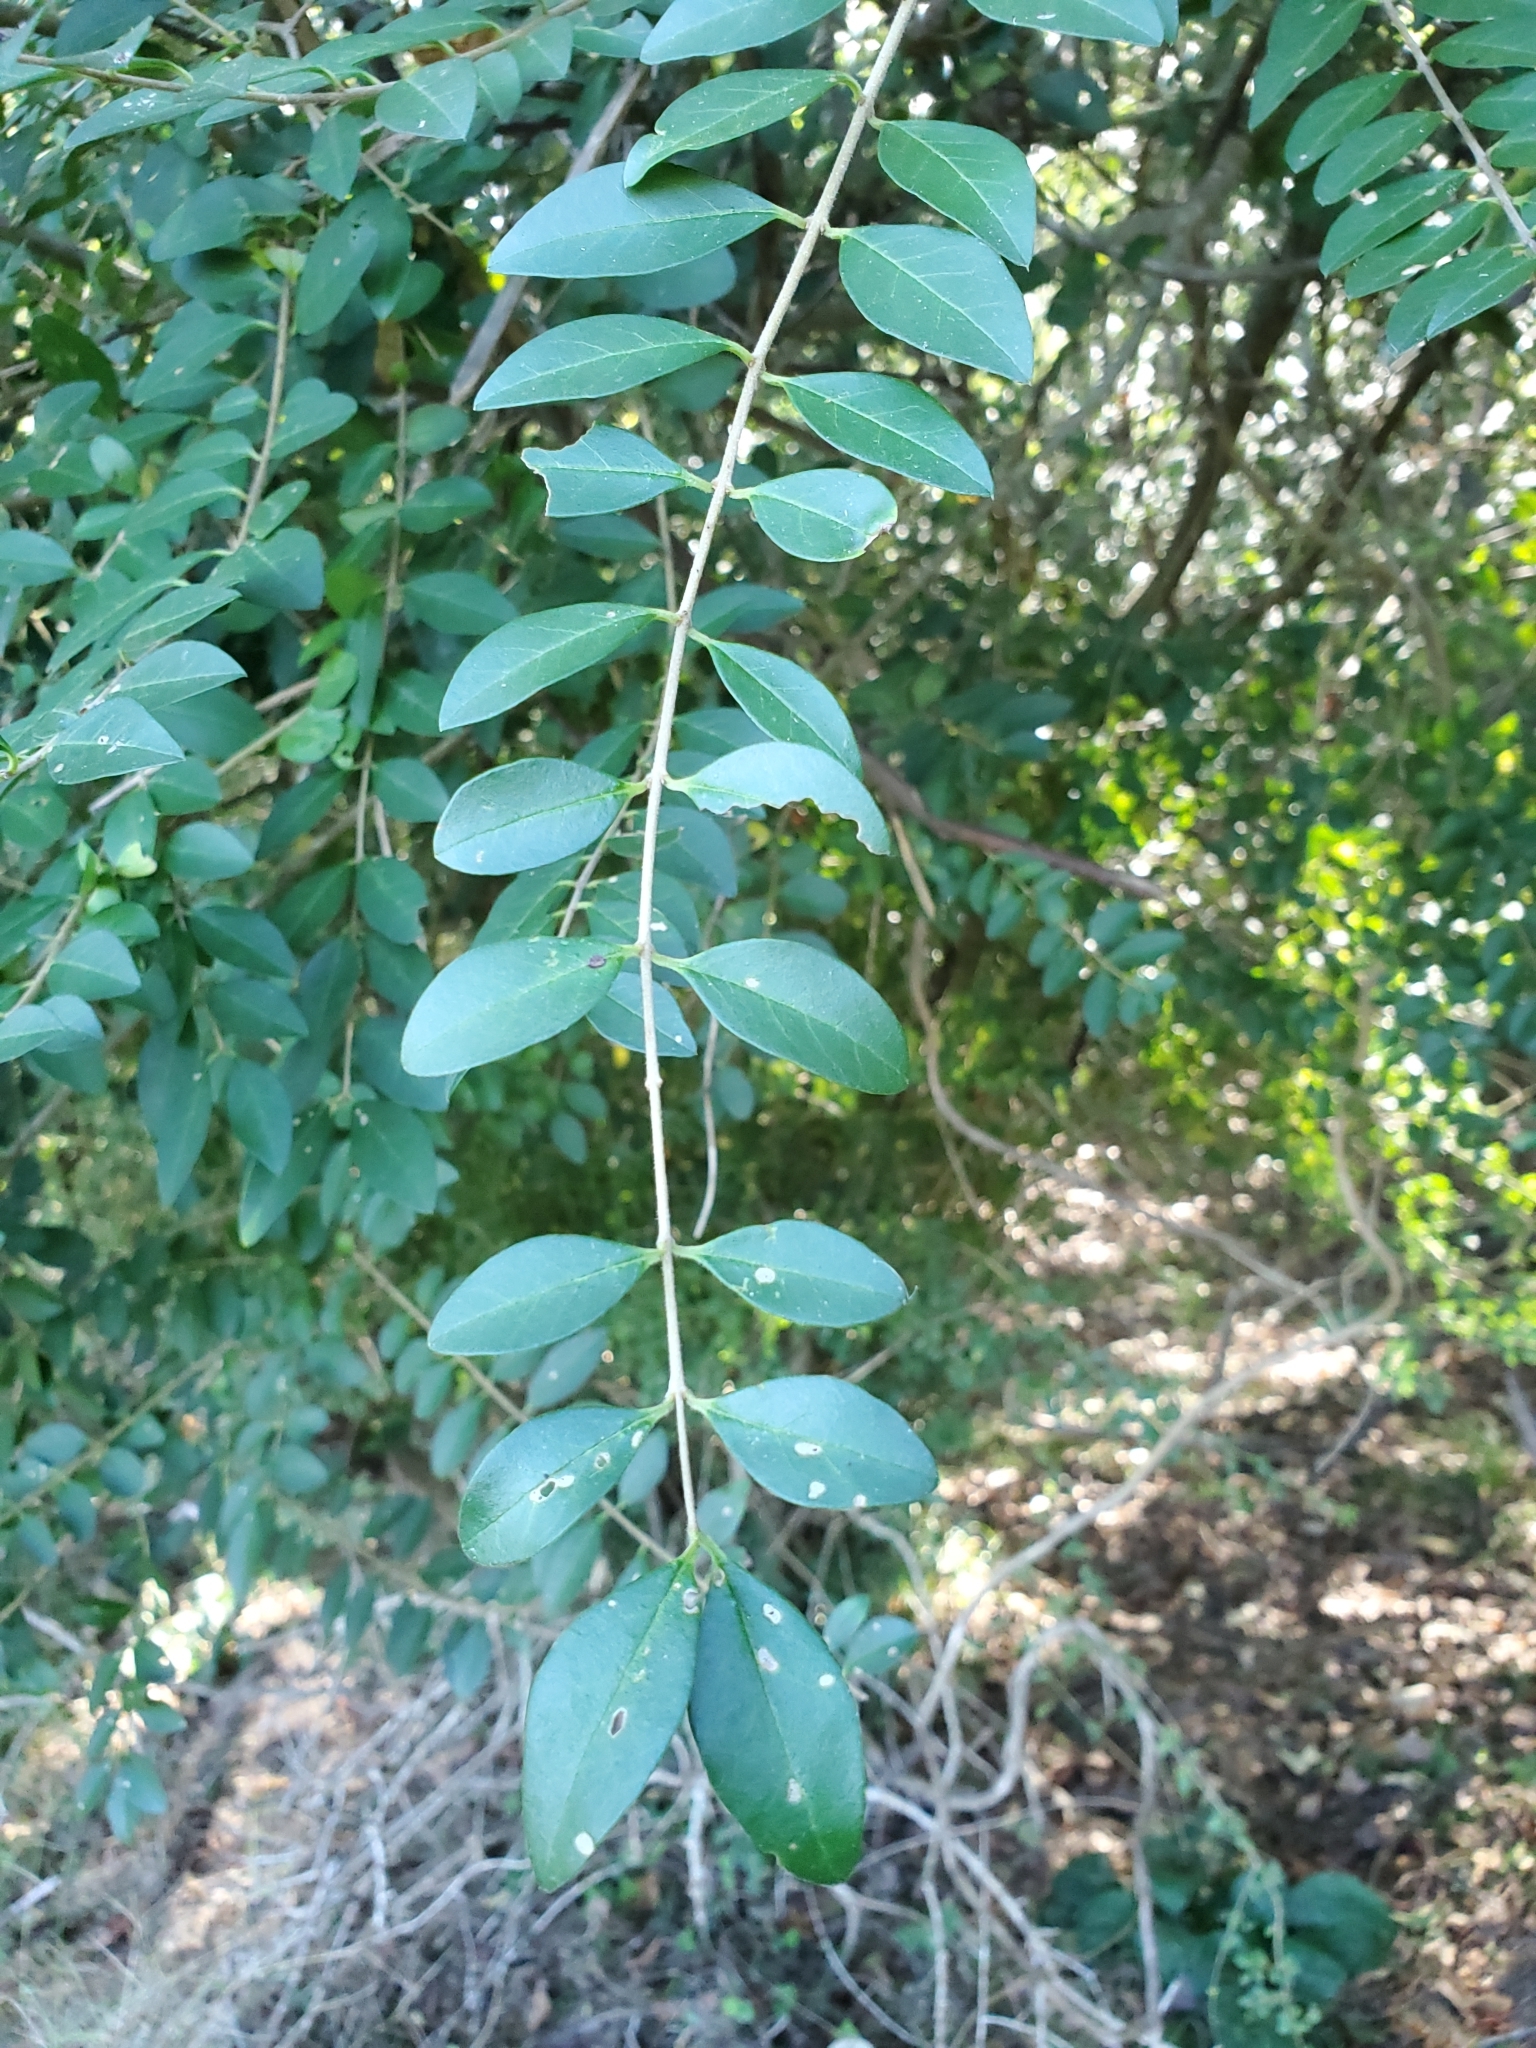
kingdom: Plantae
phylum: Tracheophyta
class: Magnoliopsida
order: Lamiales
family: Oleaceae
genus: Ligustrum
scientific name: Ligustrum sinense
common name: Chinese privet
